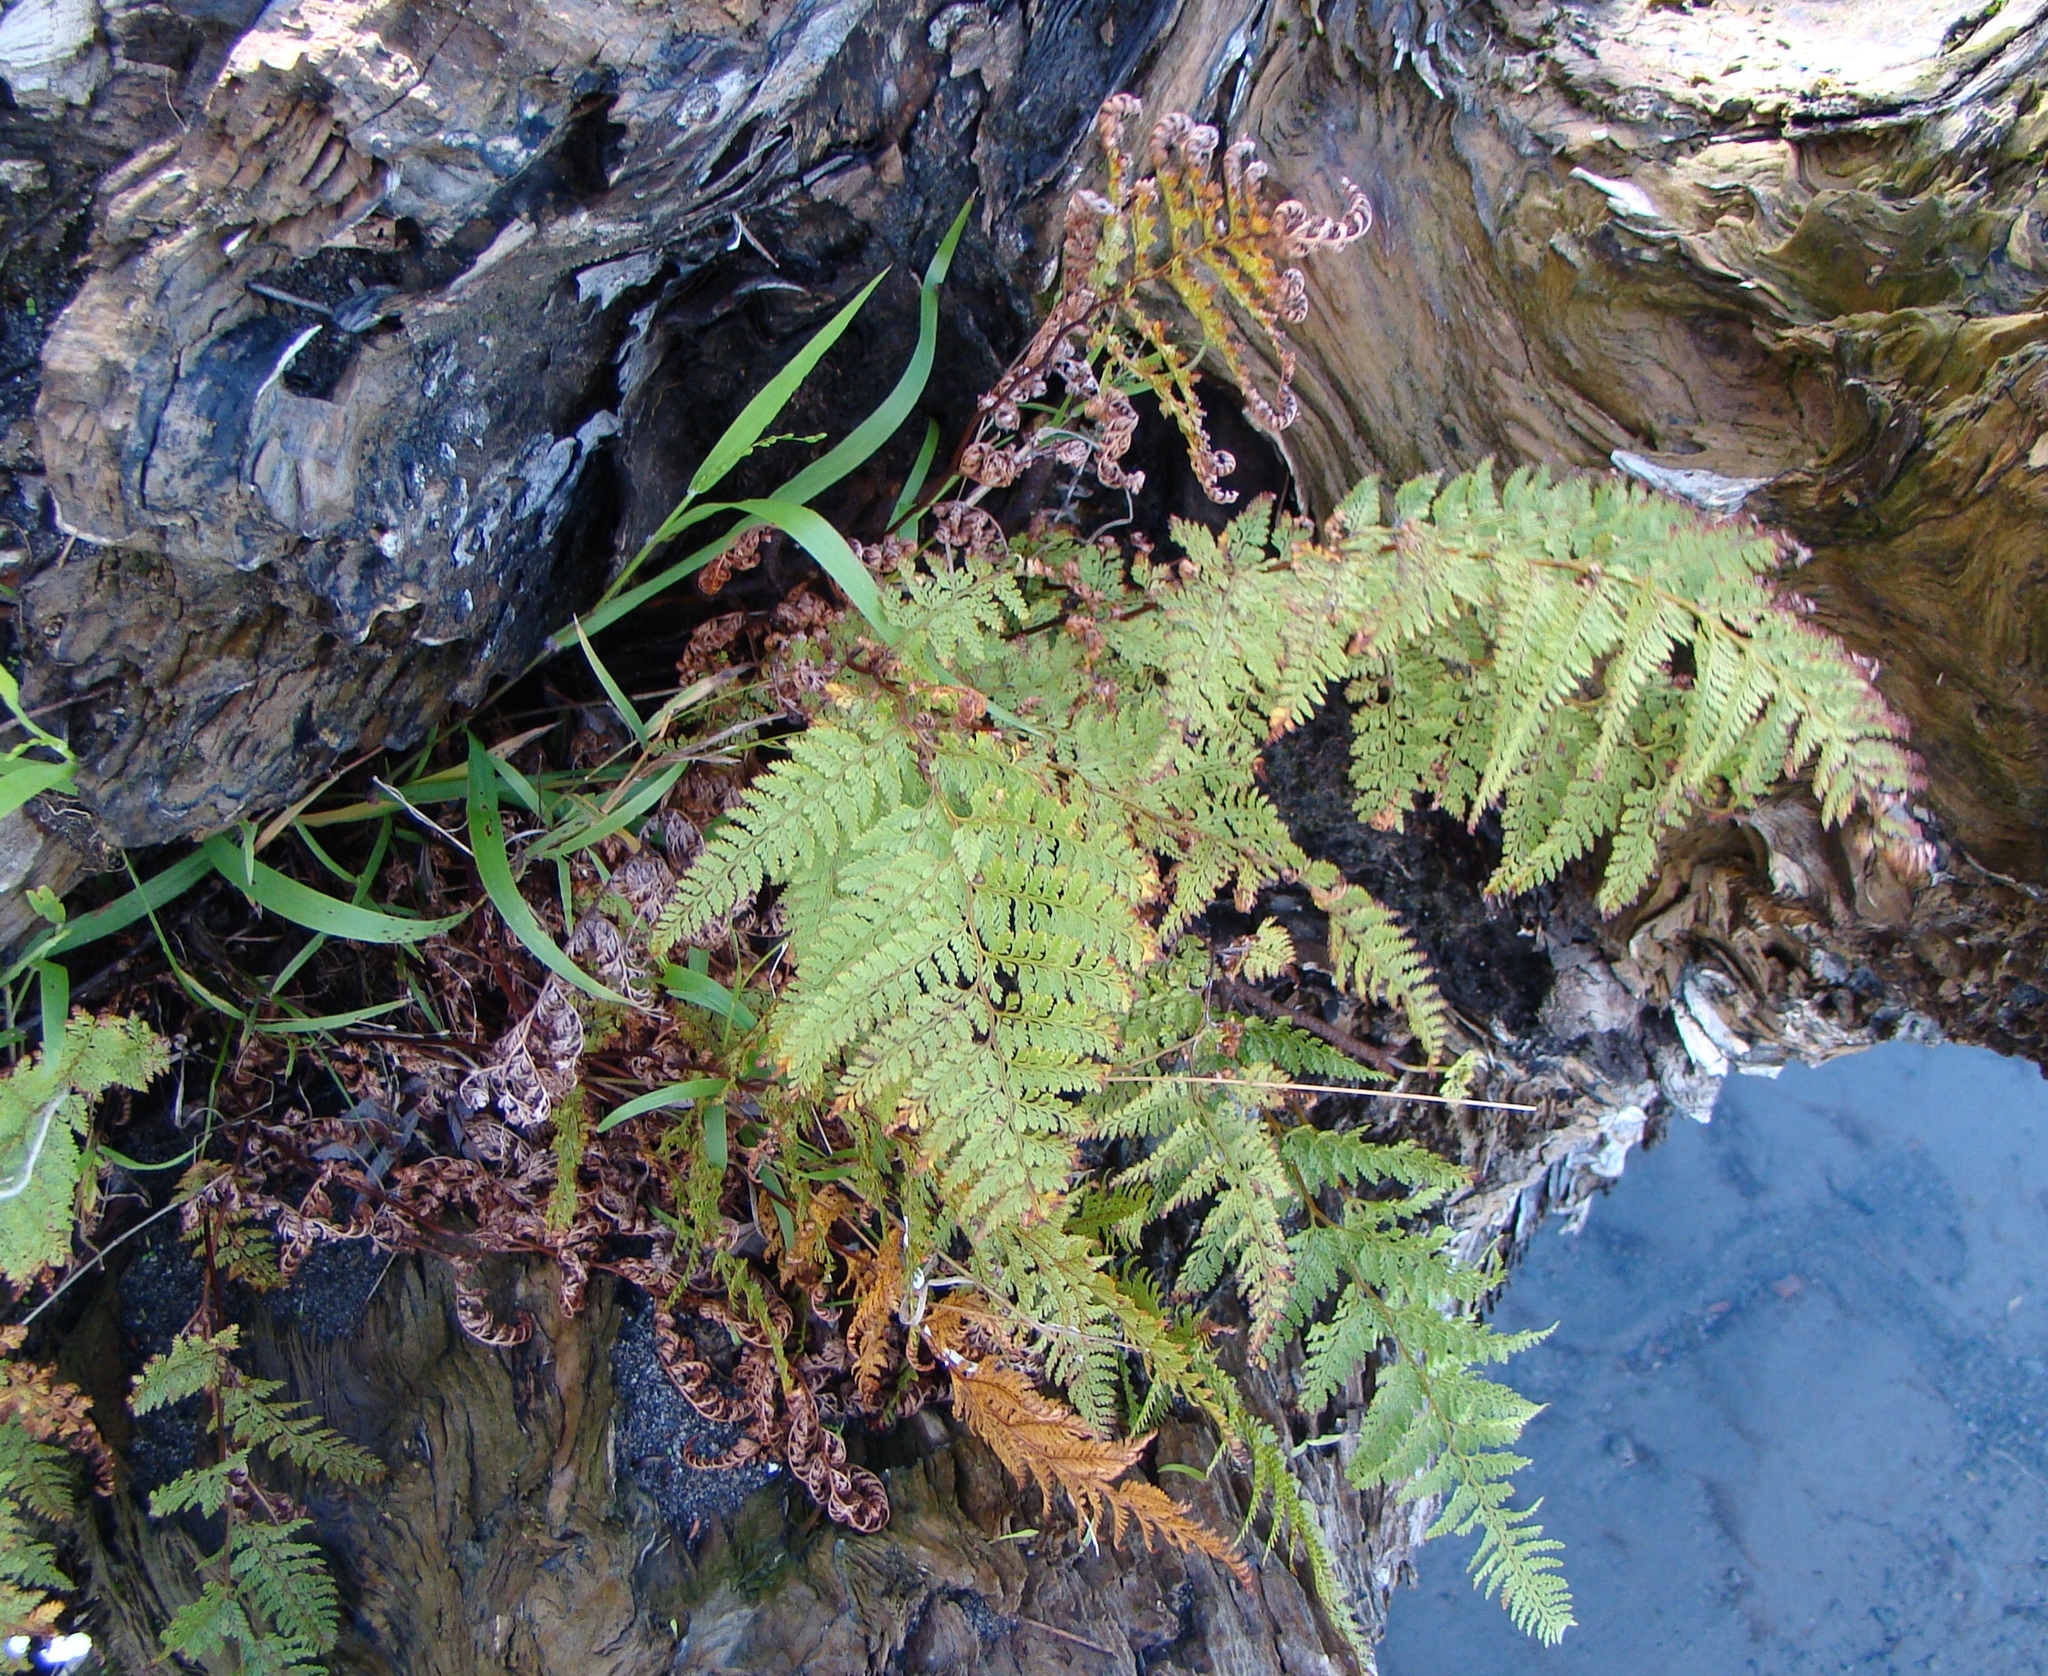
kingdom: Plantae
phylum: Tracheophyta
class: Polypodiopsida
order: Polypodiales
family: Dennstaedtiaceae
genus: Paesia
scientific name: Paesia scaberula
